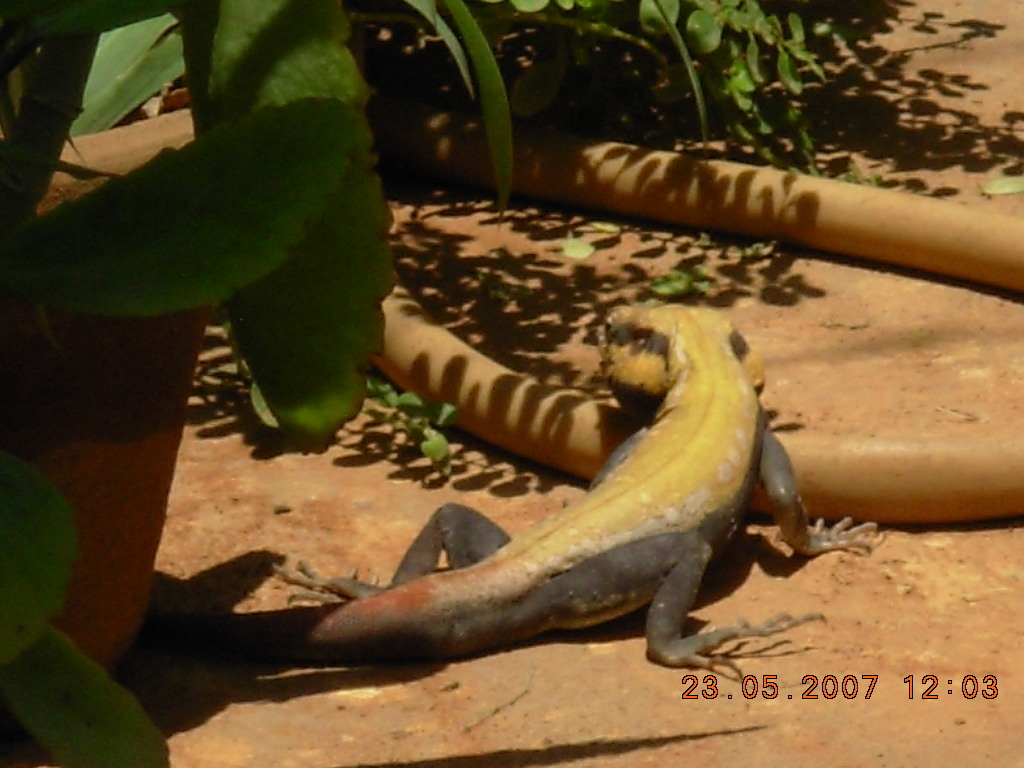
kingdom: Animalia
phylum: Chordata
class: Squamata
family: Agamidae
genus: Psammophilus
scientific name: Psammophilus dorsalis
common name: South indian rock agama
